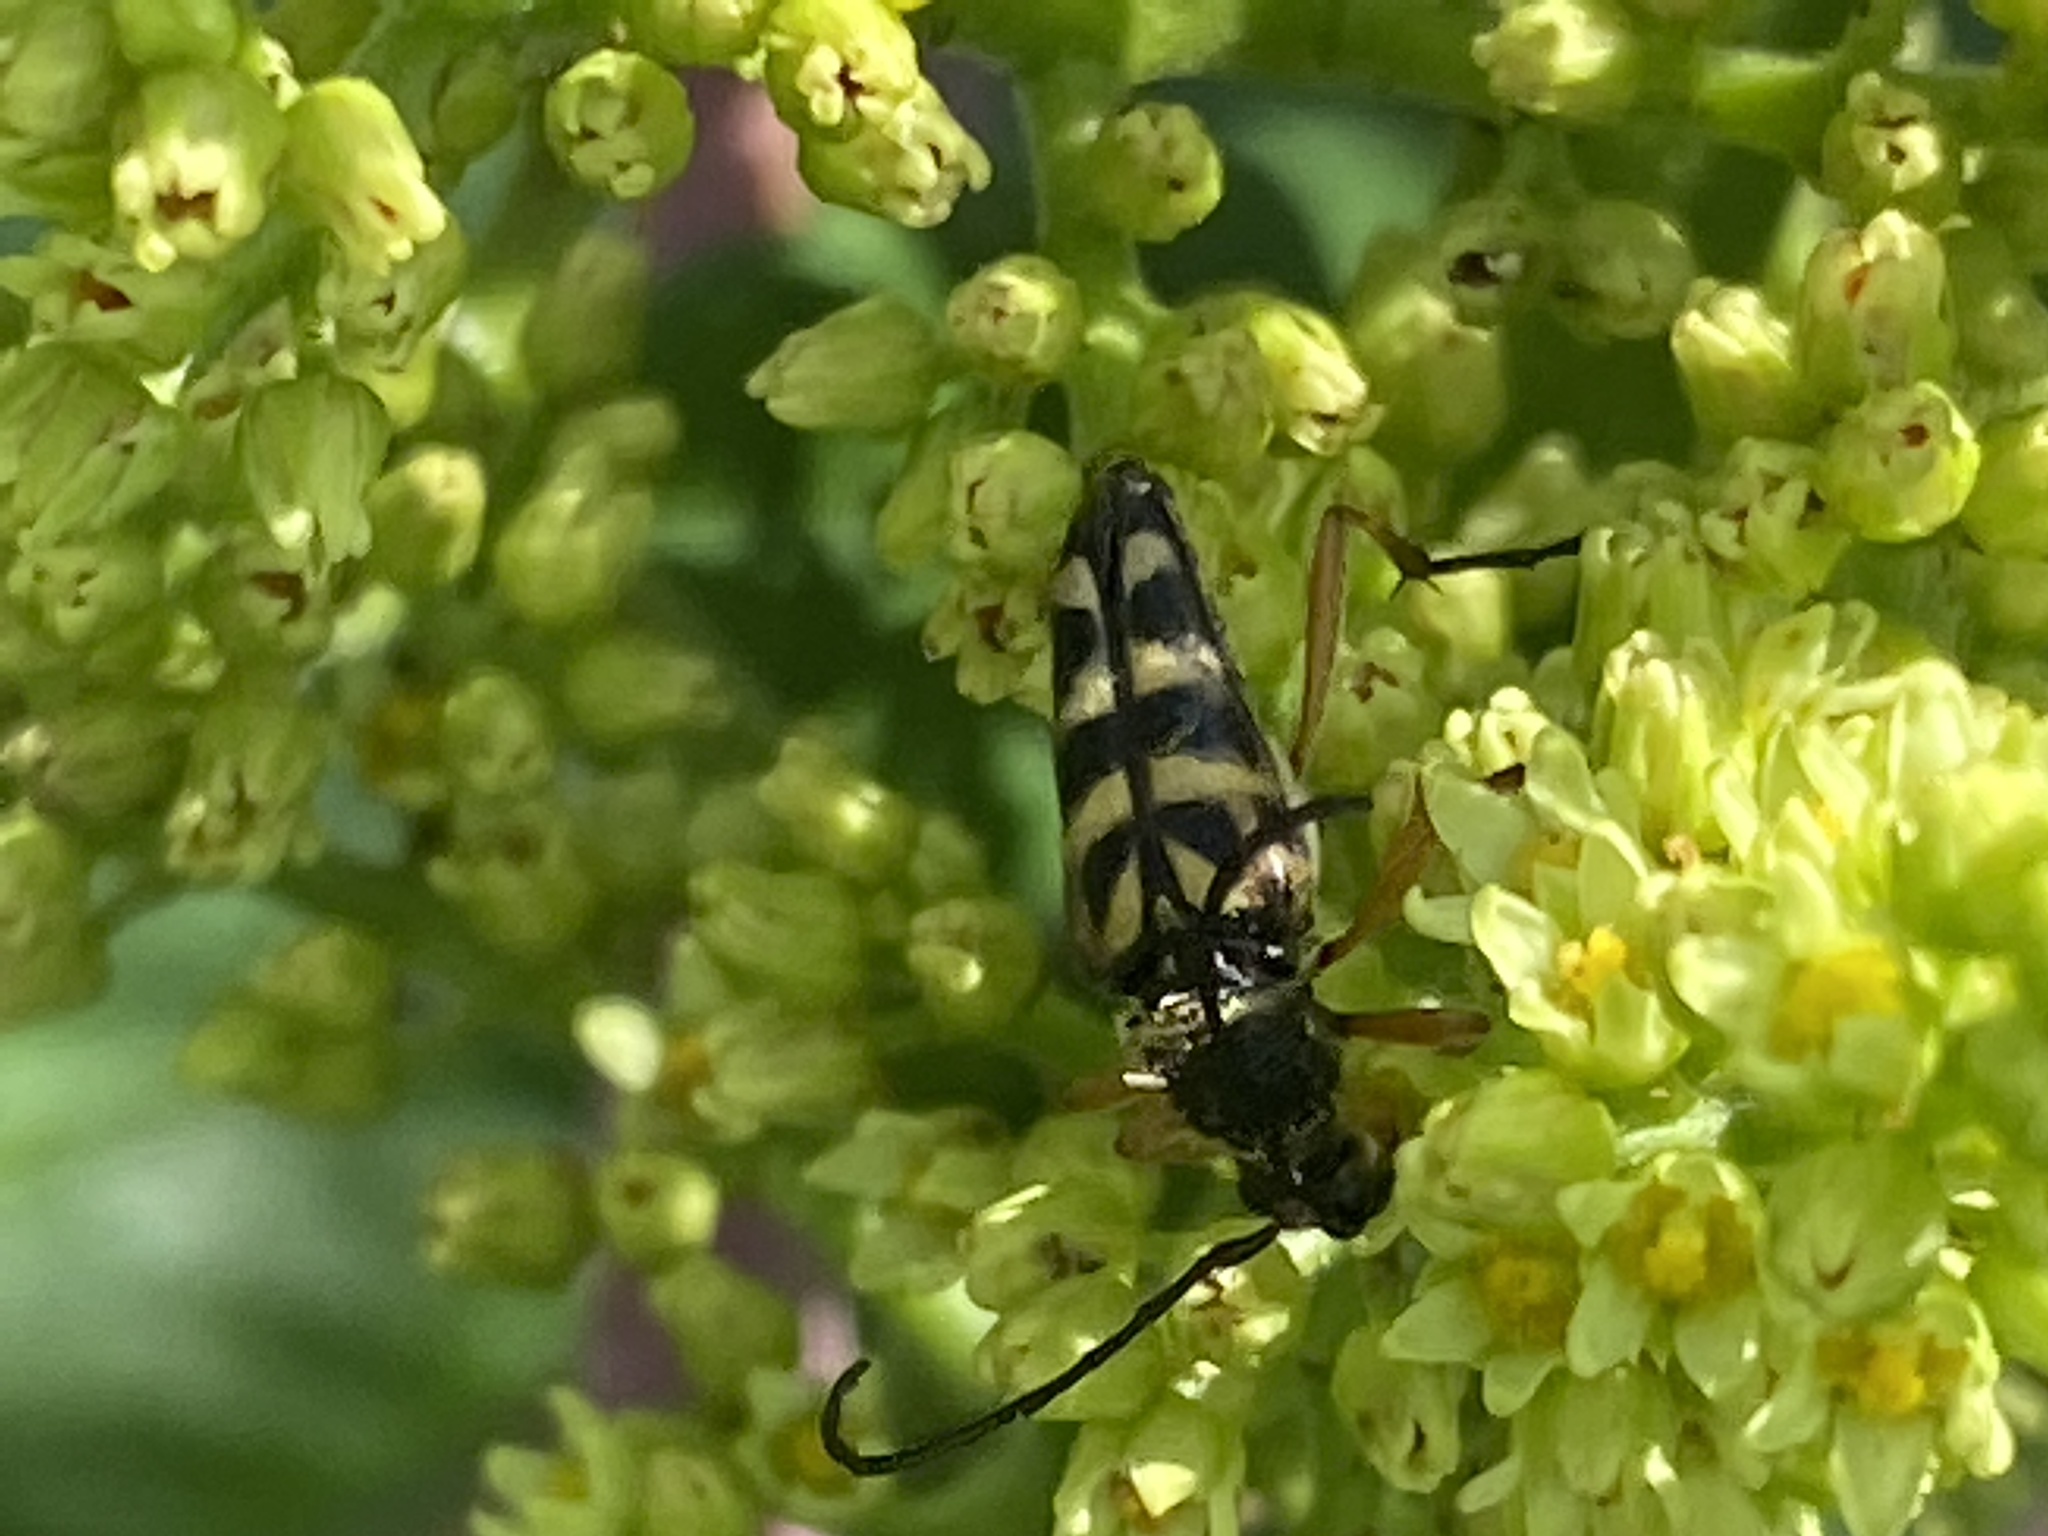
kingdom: Animalia
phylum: Arthropoda
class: Insecta
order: Coleoptera
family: Cerambycidae
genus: Typocerus
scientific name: Typocerus zebra
